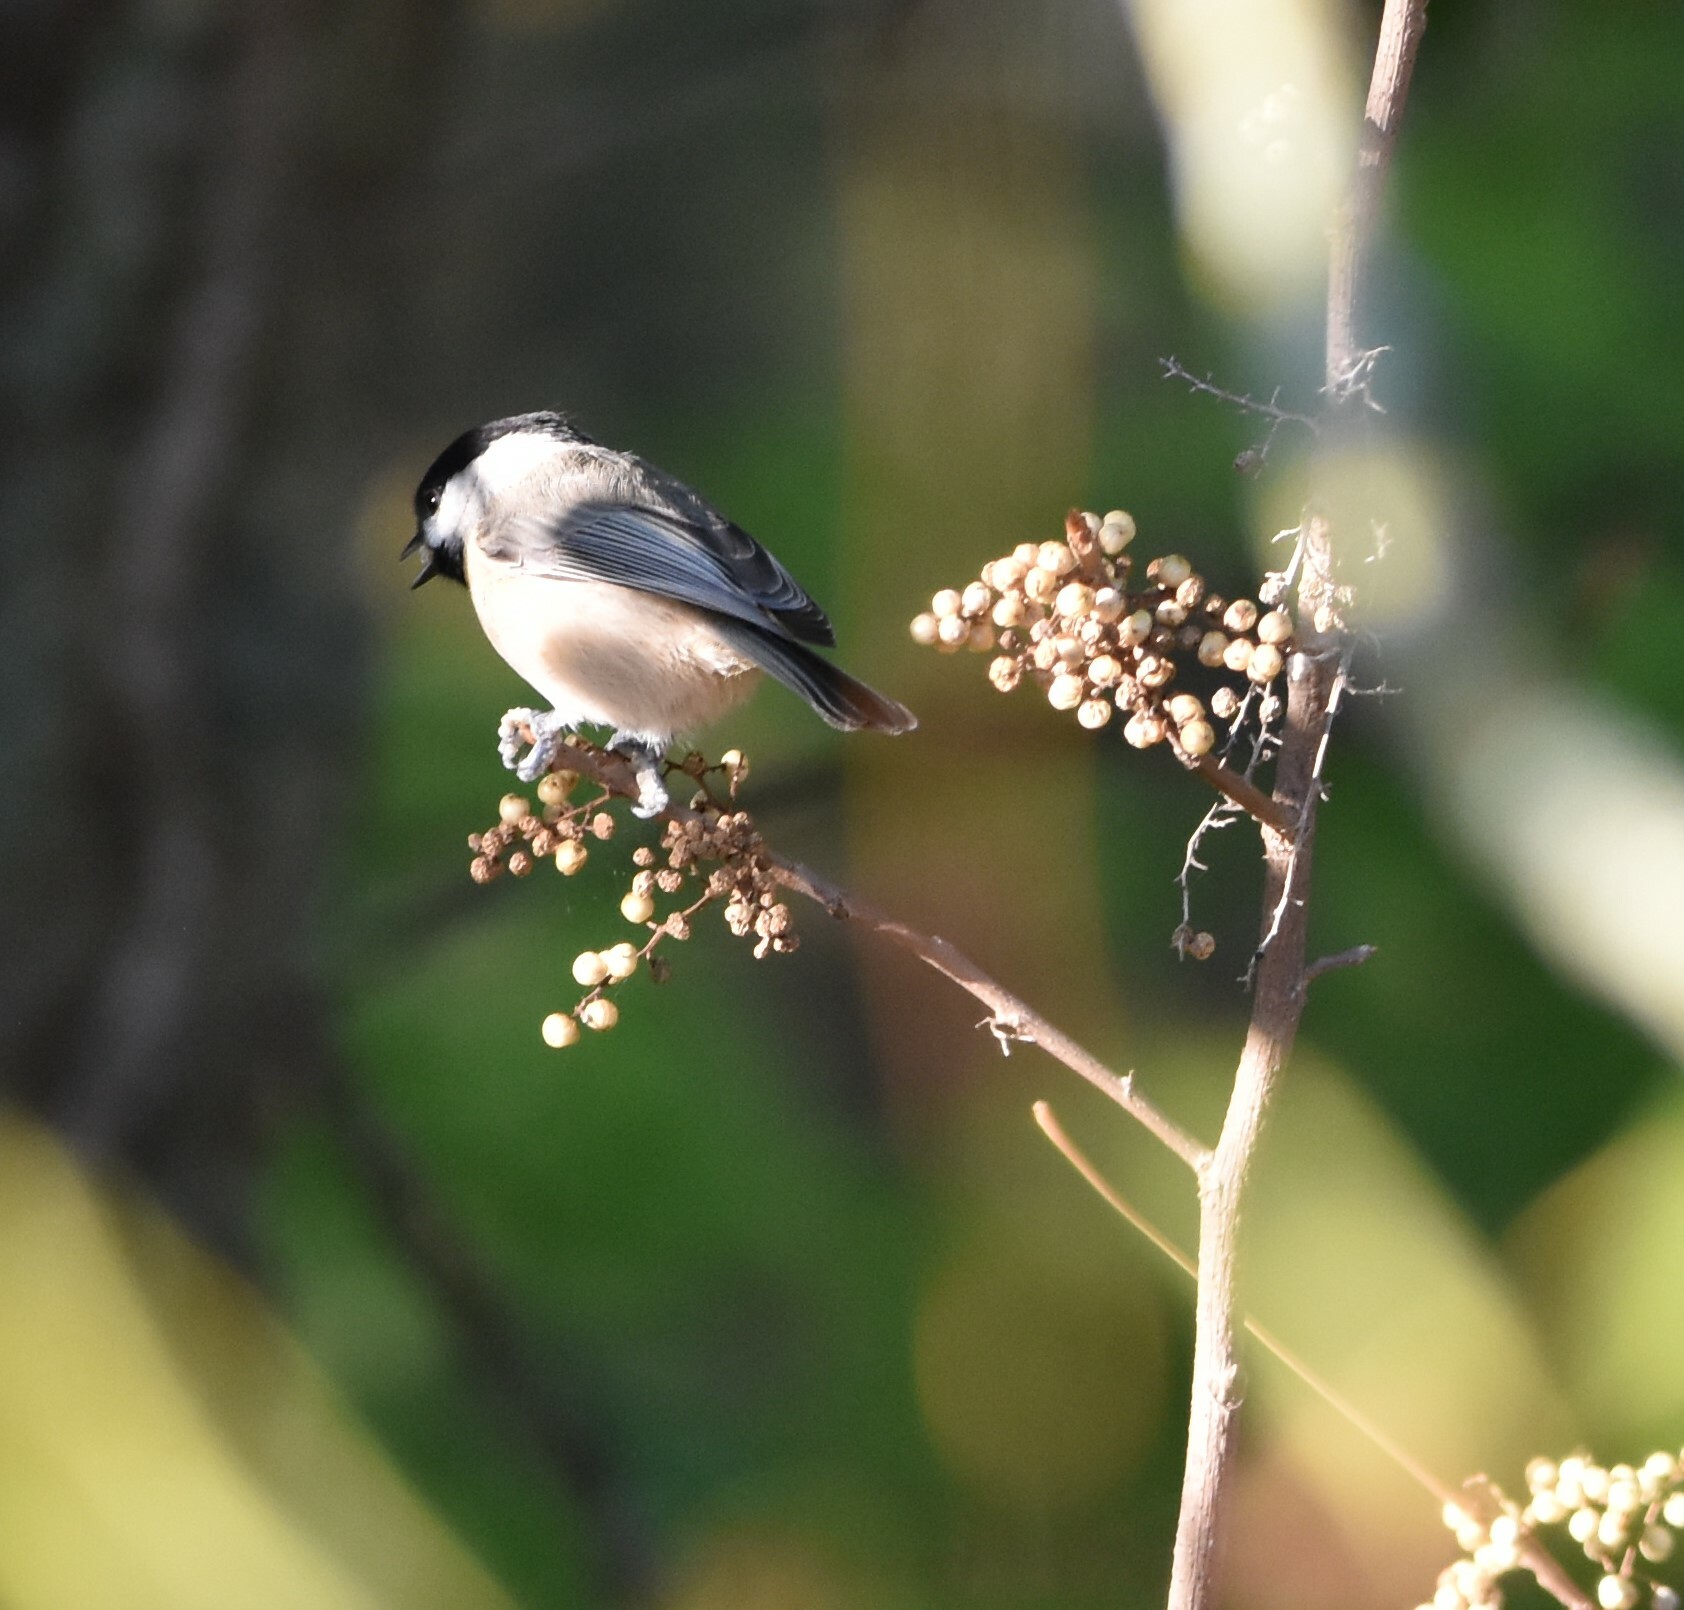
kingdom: Animalia
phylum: Chordata
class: Aves
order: Passeriformes
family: Paridae
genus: Poecile
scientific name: Poecile carolinensis
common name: Carolina chickadee
